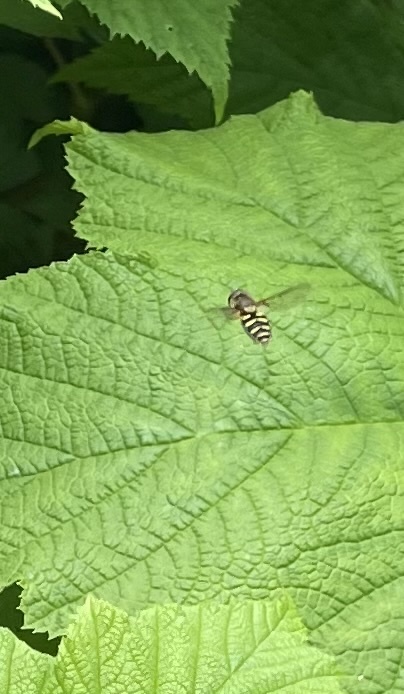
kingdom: Animalia
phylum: Arthropoda
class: Insecta
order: Diptera
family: Syrphidae
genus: Syrphus
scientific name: Syrphus opinator
